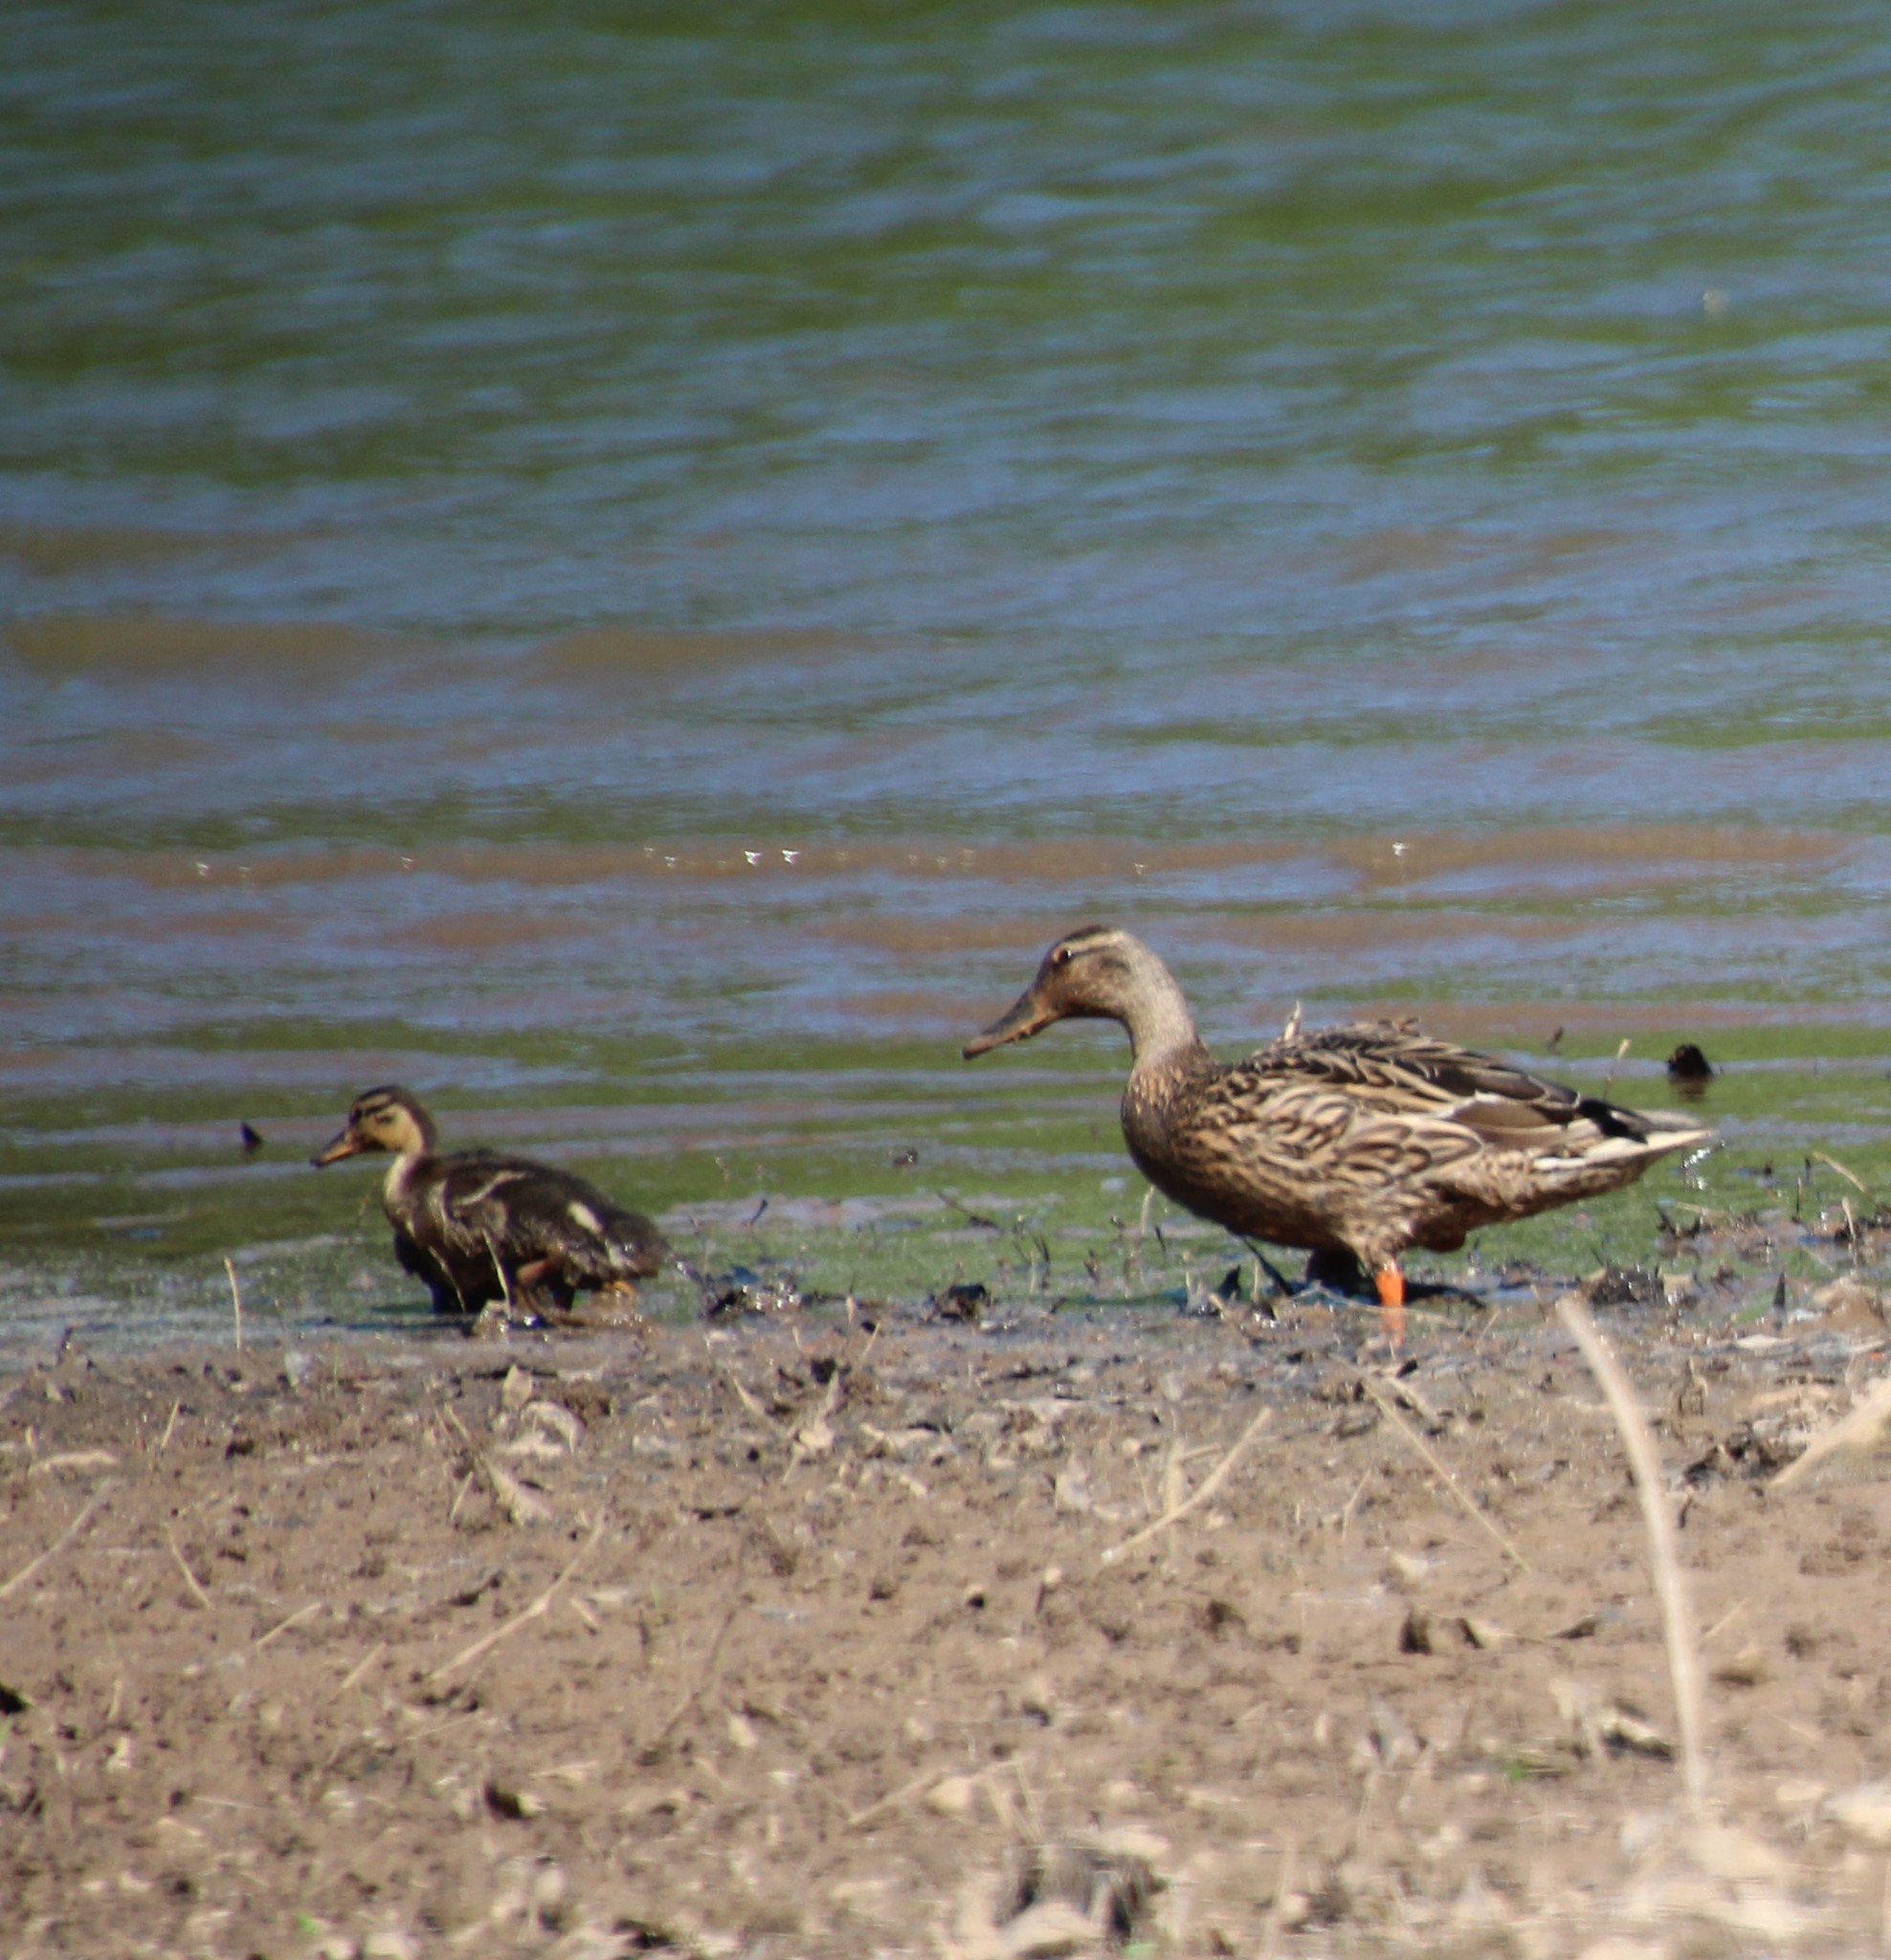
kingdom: Animalia
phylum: Chordata
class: Aves
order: Anseriformes
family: Anatidae
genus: Anas
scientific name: Anas platyrhynchos
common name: Mallard
